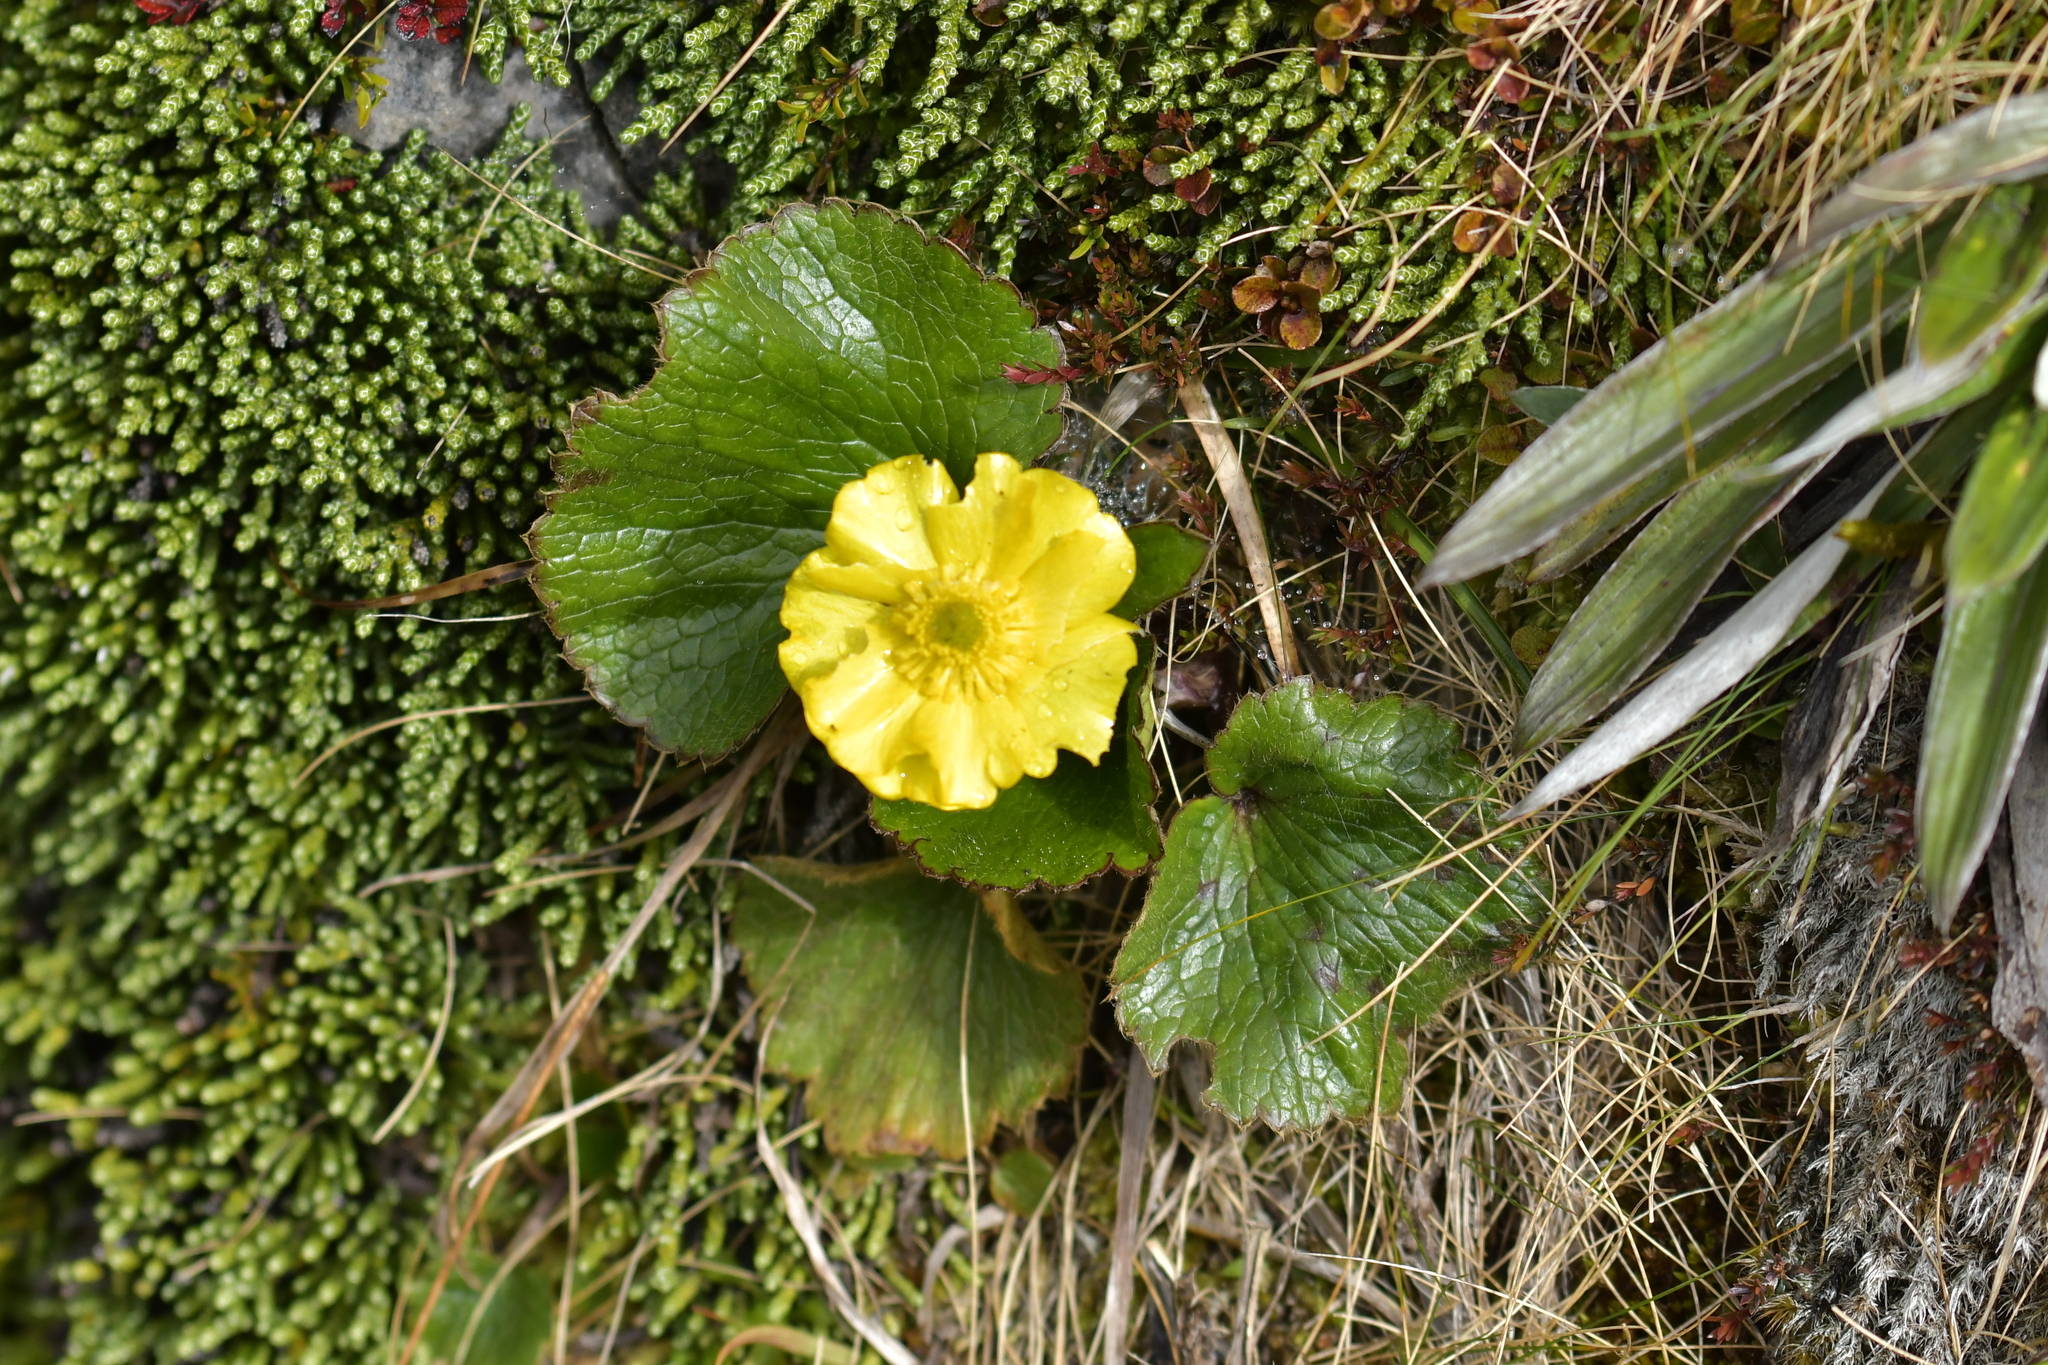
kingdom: Plantae
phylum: Tracheophyta
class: Magnoliopsida
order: Ranunculales
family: Ranunculaceae
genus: Ranunculus
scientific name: Ranunculus insignis
